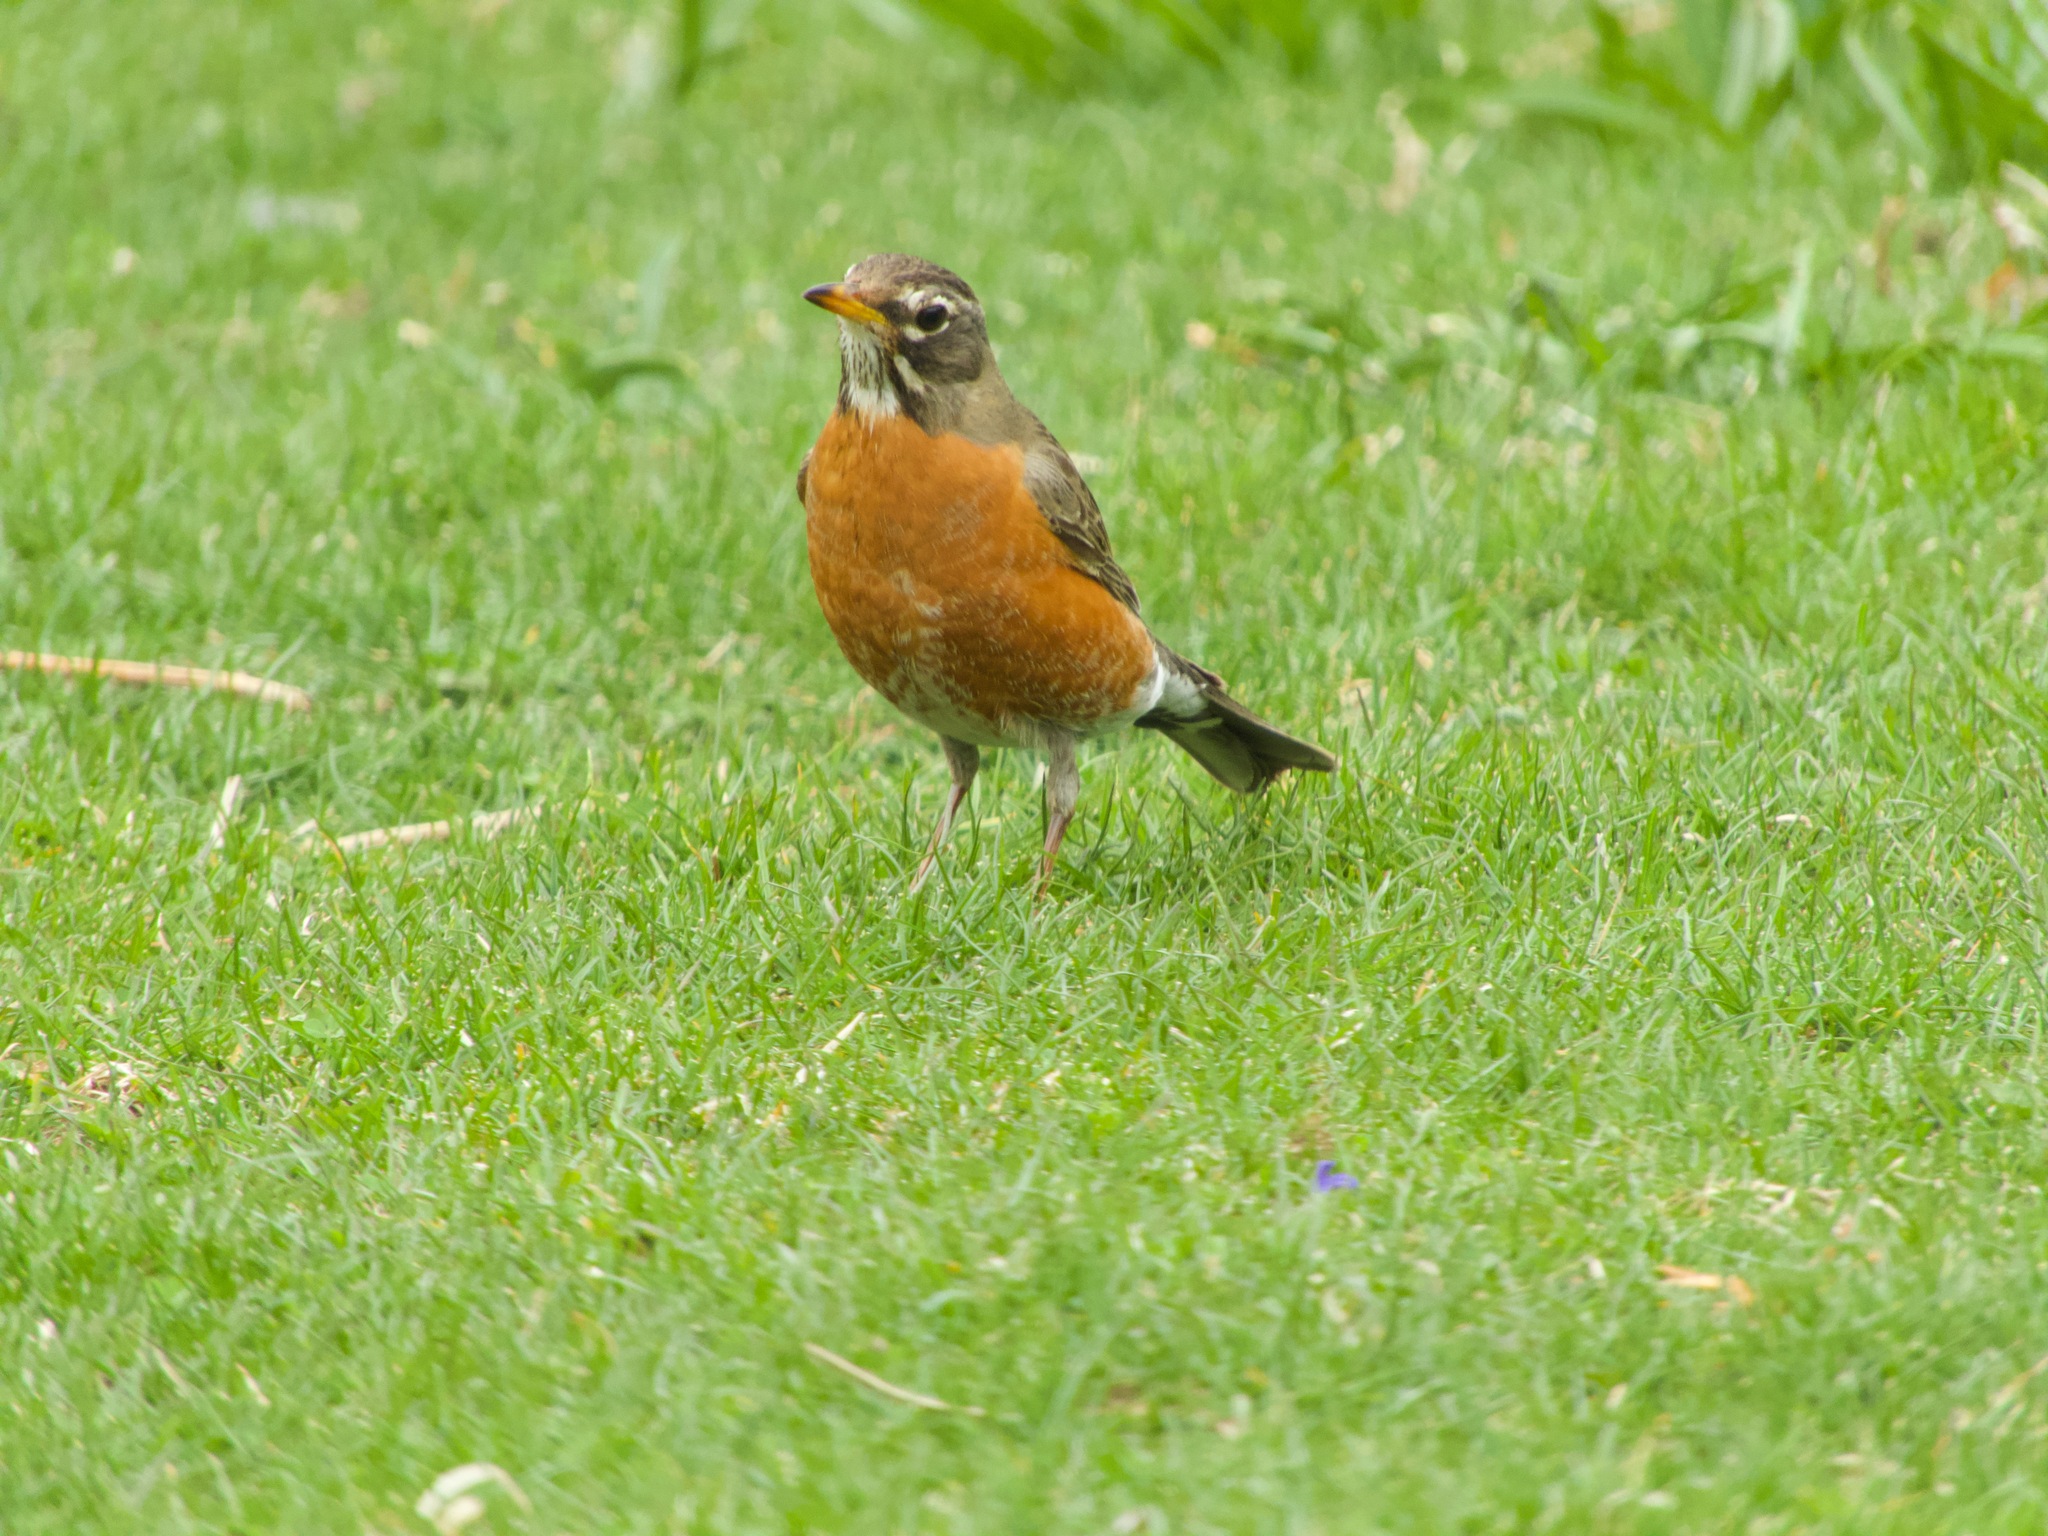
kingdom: Animalia
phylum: Chordata
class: Aves
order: Passeriformes
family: Turdidae
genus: Turdus
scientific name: Turdus migratorius
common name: American robin
